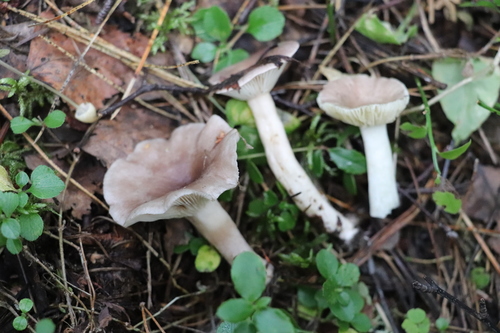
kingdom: Fungi
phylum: Basidiomycota
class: Agaricomycetes
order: Russulales
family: Russulaceae
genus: Lactarius
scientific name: Lactarius uvidus
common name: Shiner milkcap
